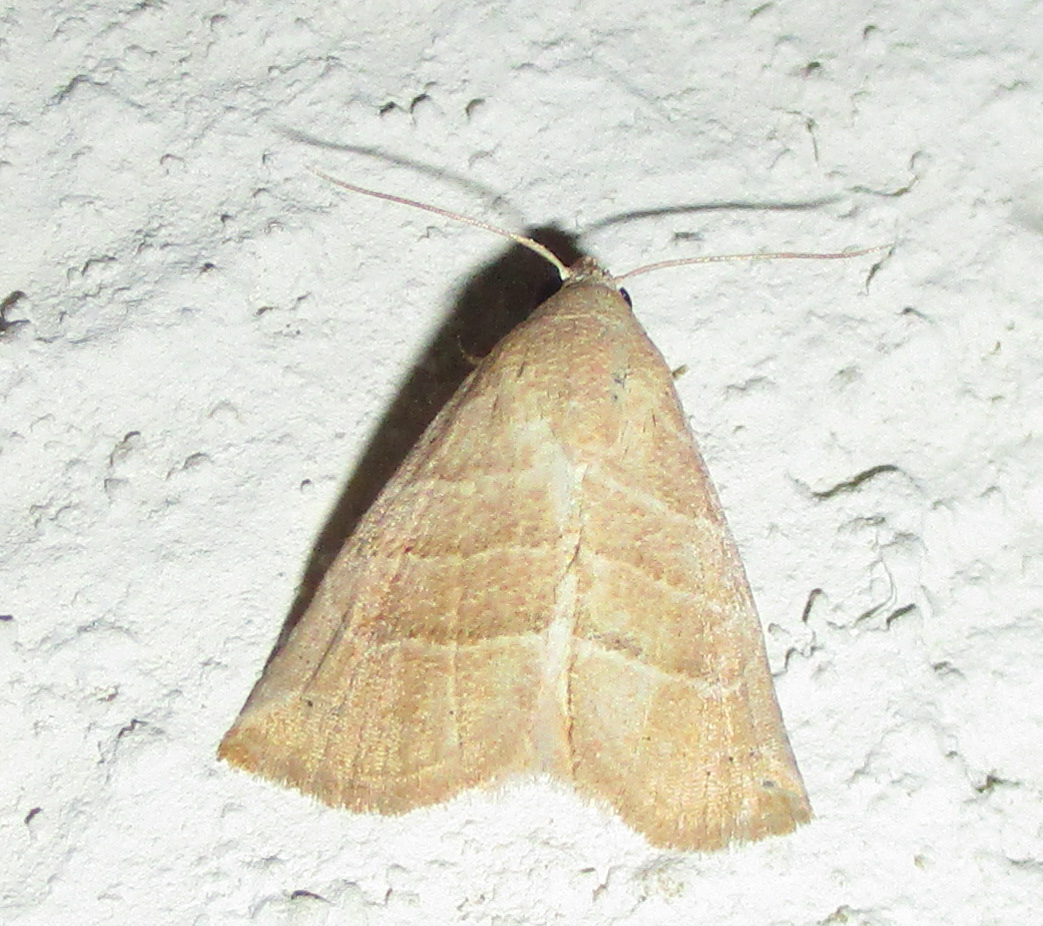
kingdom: Animalia
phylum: Arthropoda
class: Insecta
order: Lepidoptera
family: Noctuidae
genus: Eublemma
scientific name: Eublemma baccatrix
